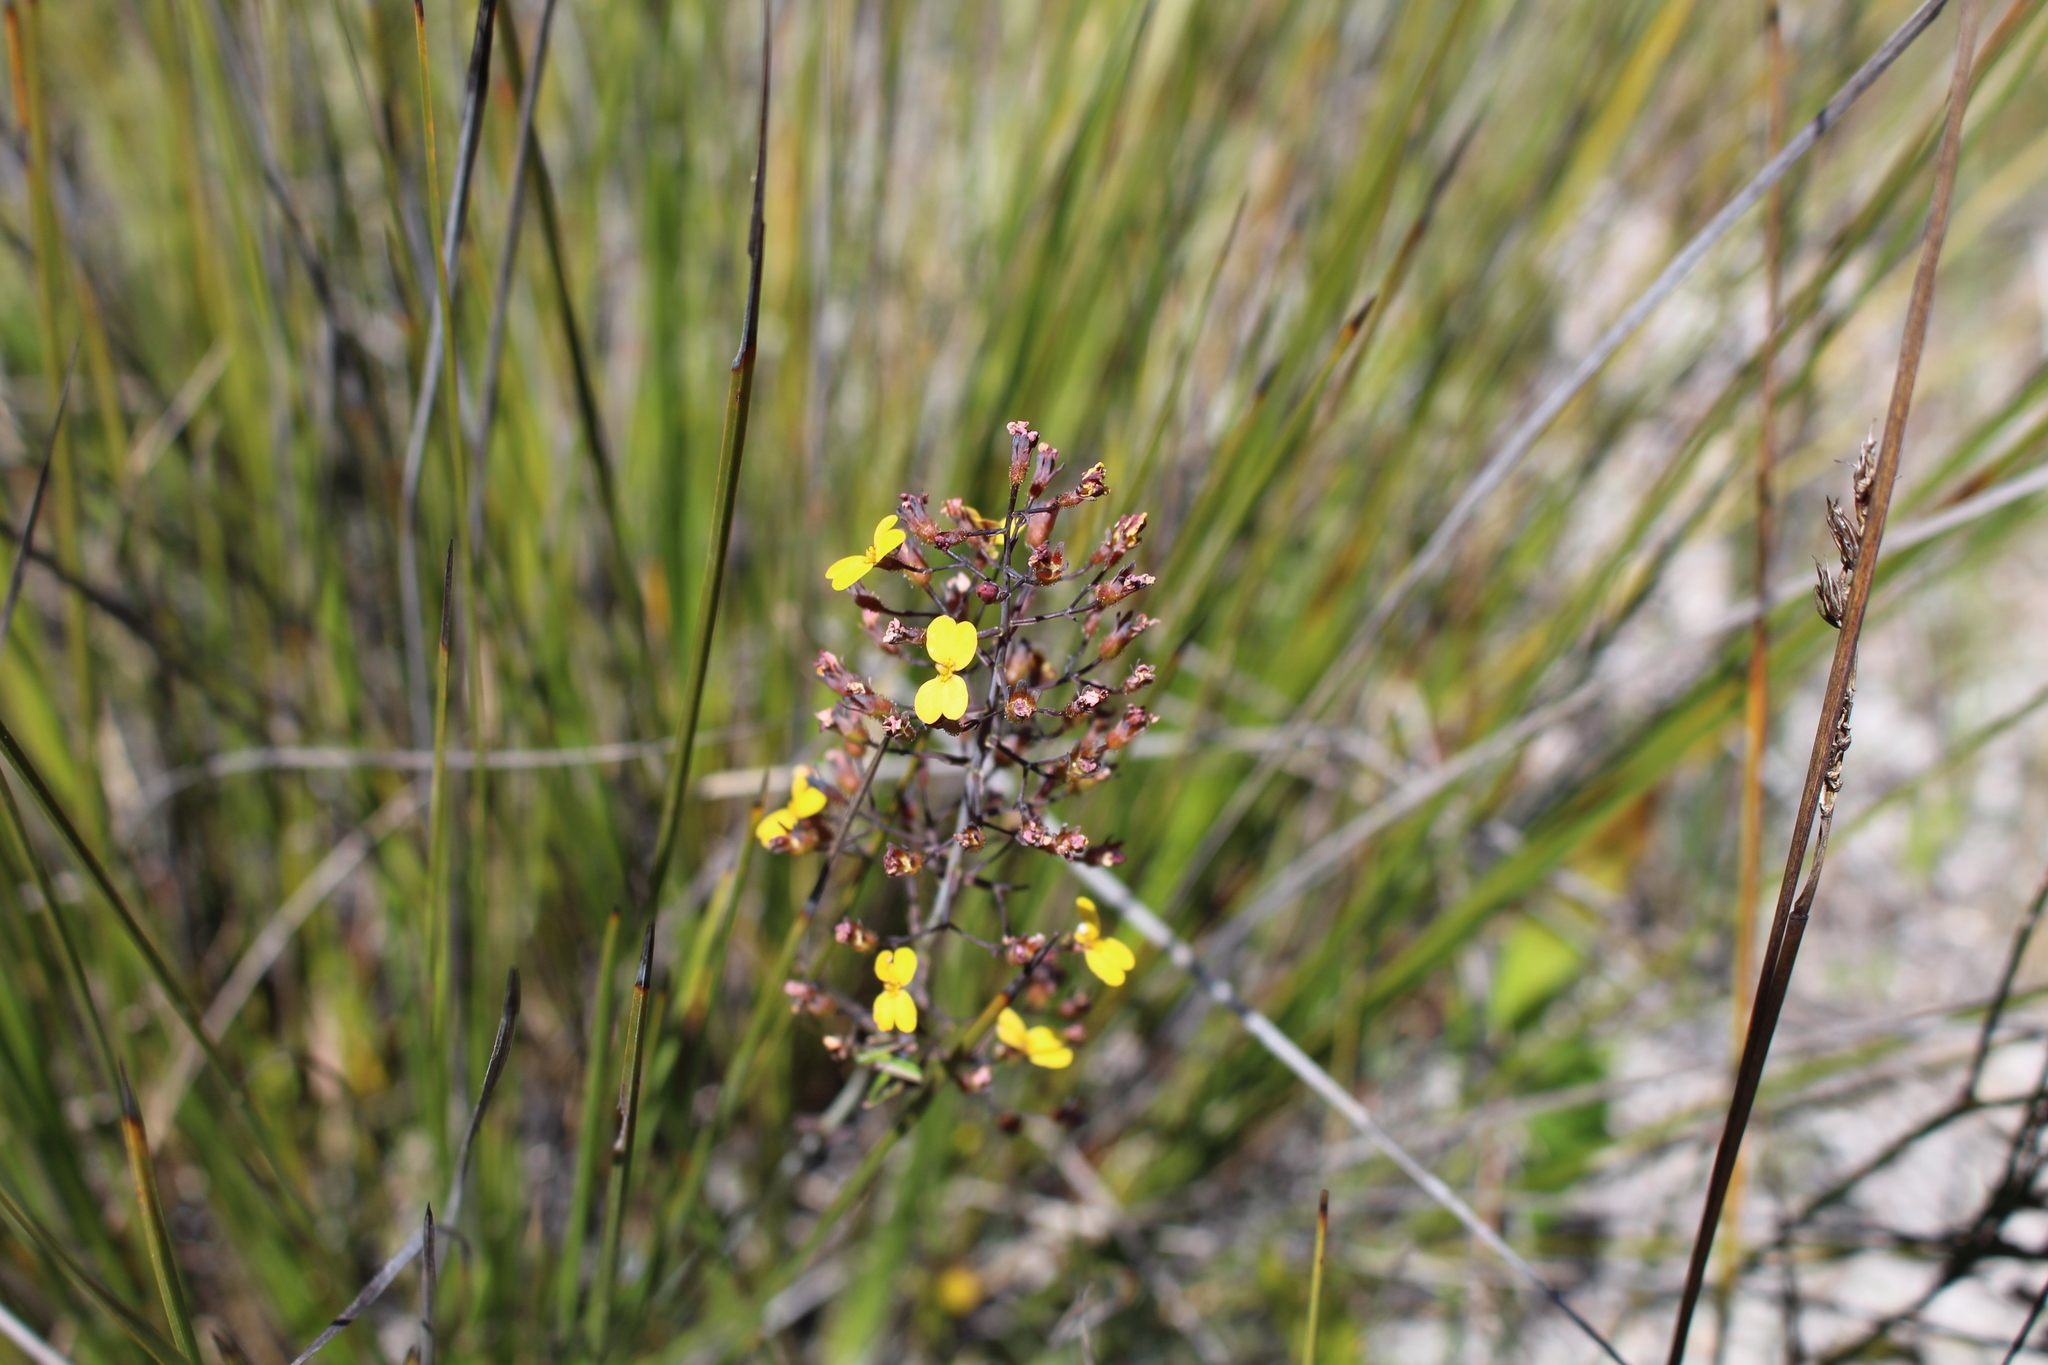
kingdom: Plantae
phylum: Tracheophyta
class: Magnoliopsida
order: Asterales
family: Stylidiaceae
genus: Stylidium
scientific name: Stylidium luteum
